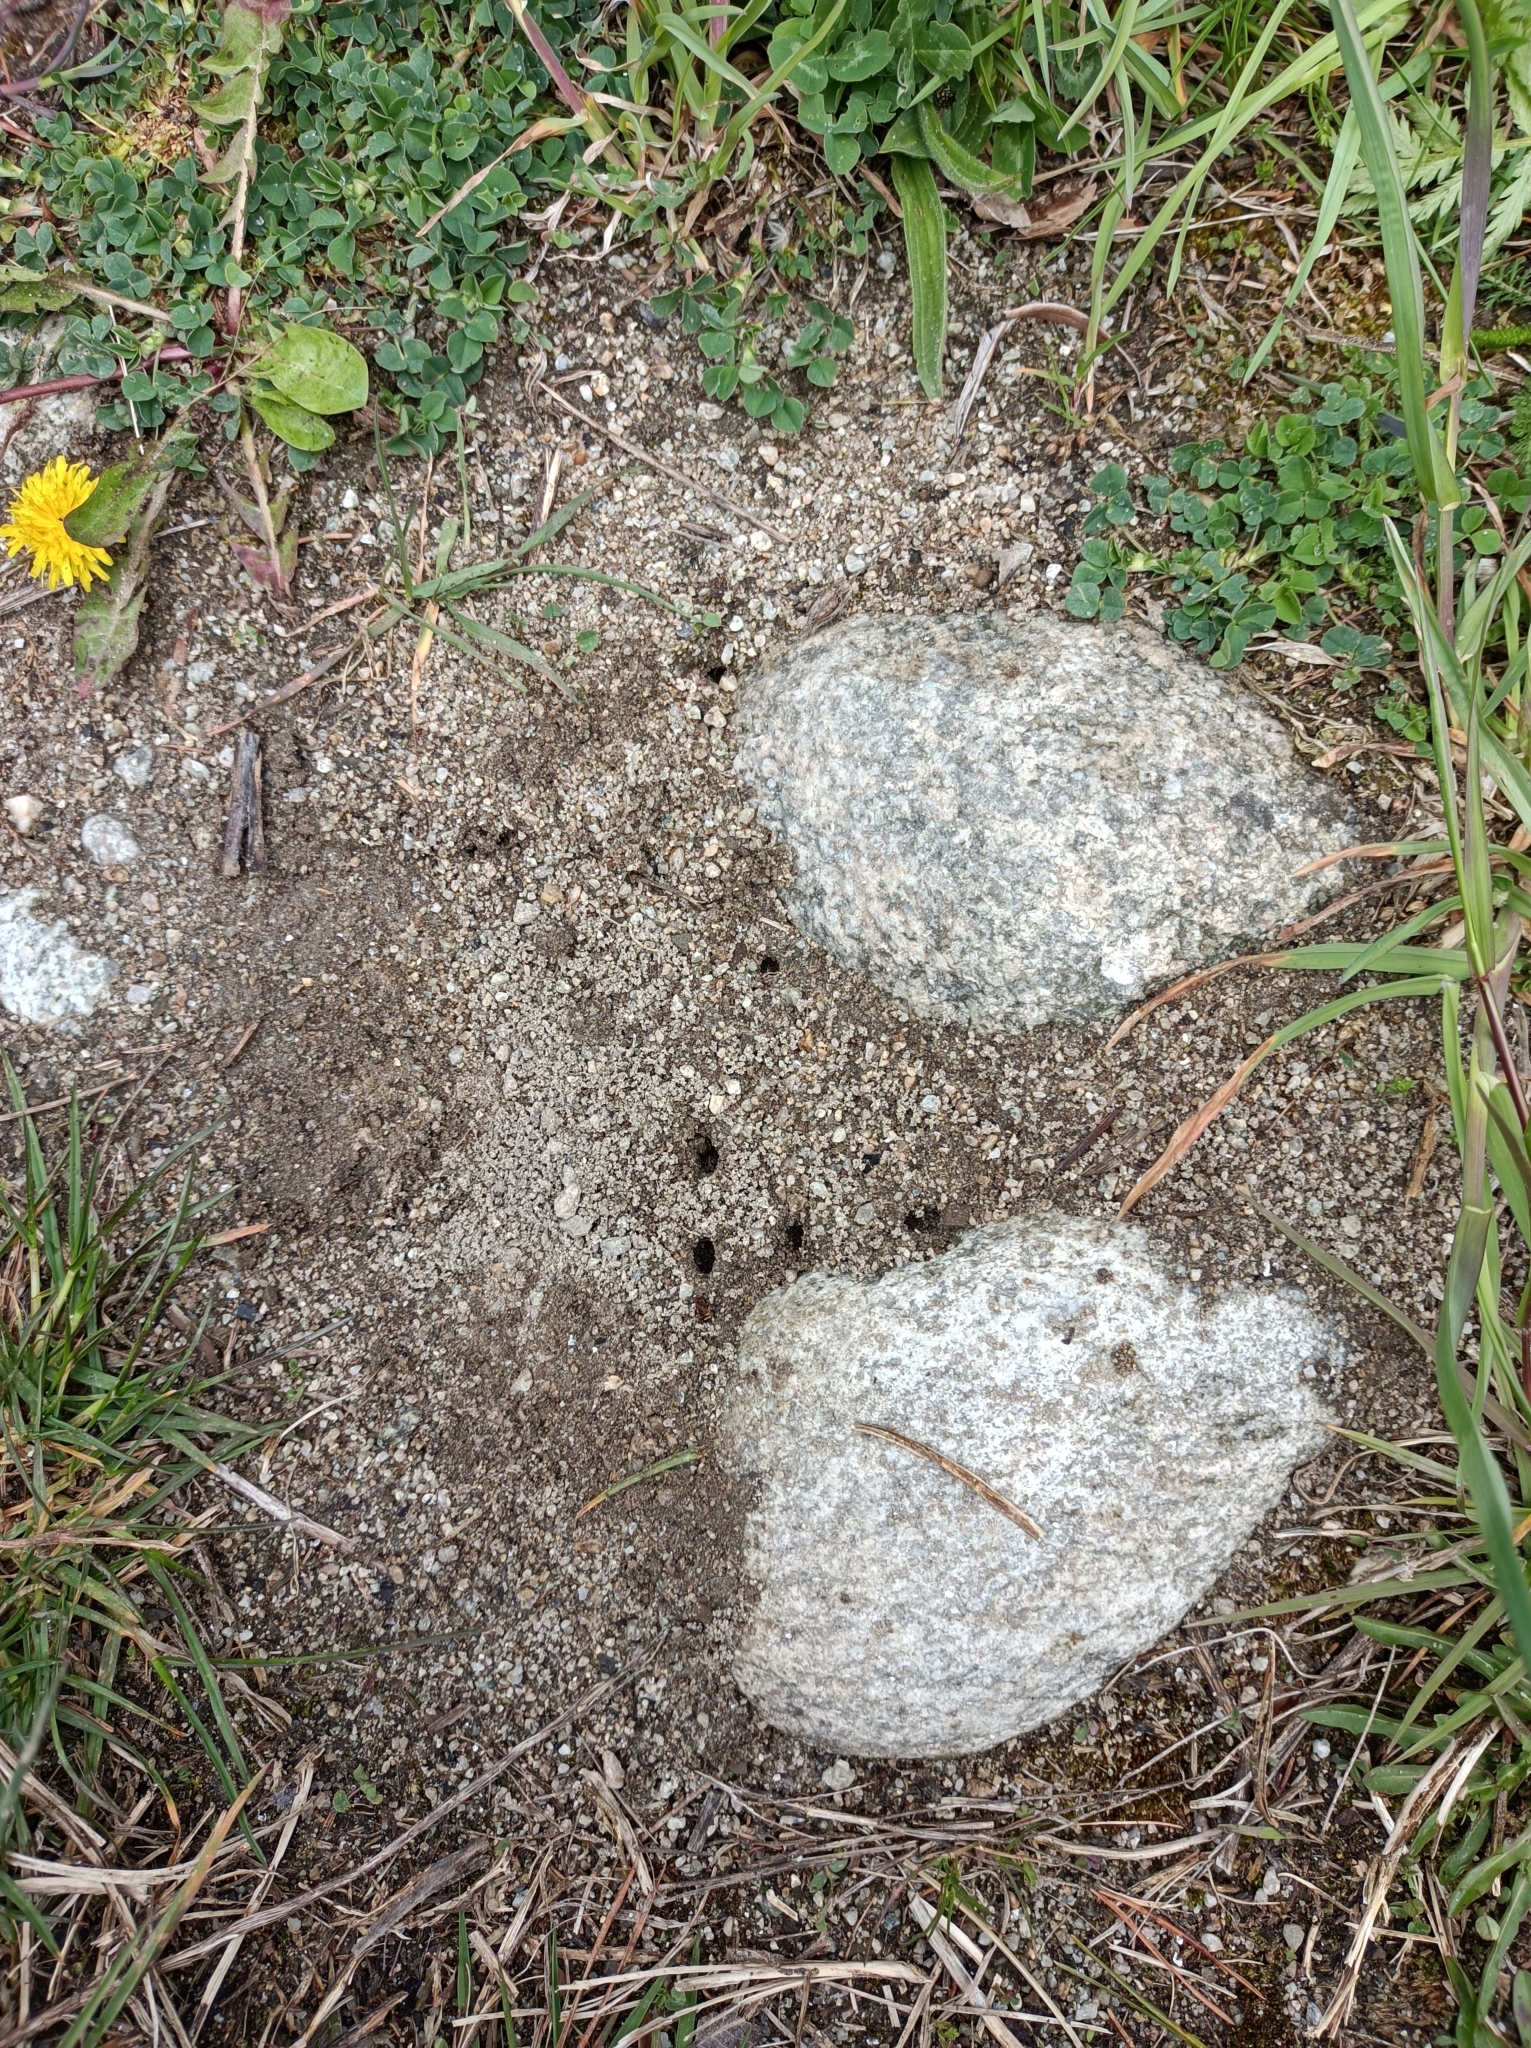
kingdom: Animalia
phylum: Arthropoda
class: Insecta
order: Hymenoptera
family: Formicidae
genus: Manica
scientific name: Manica rubida
